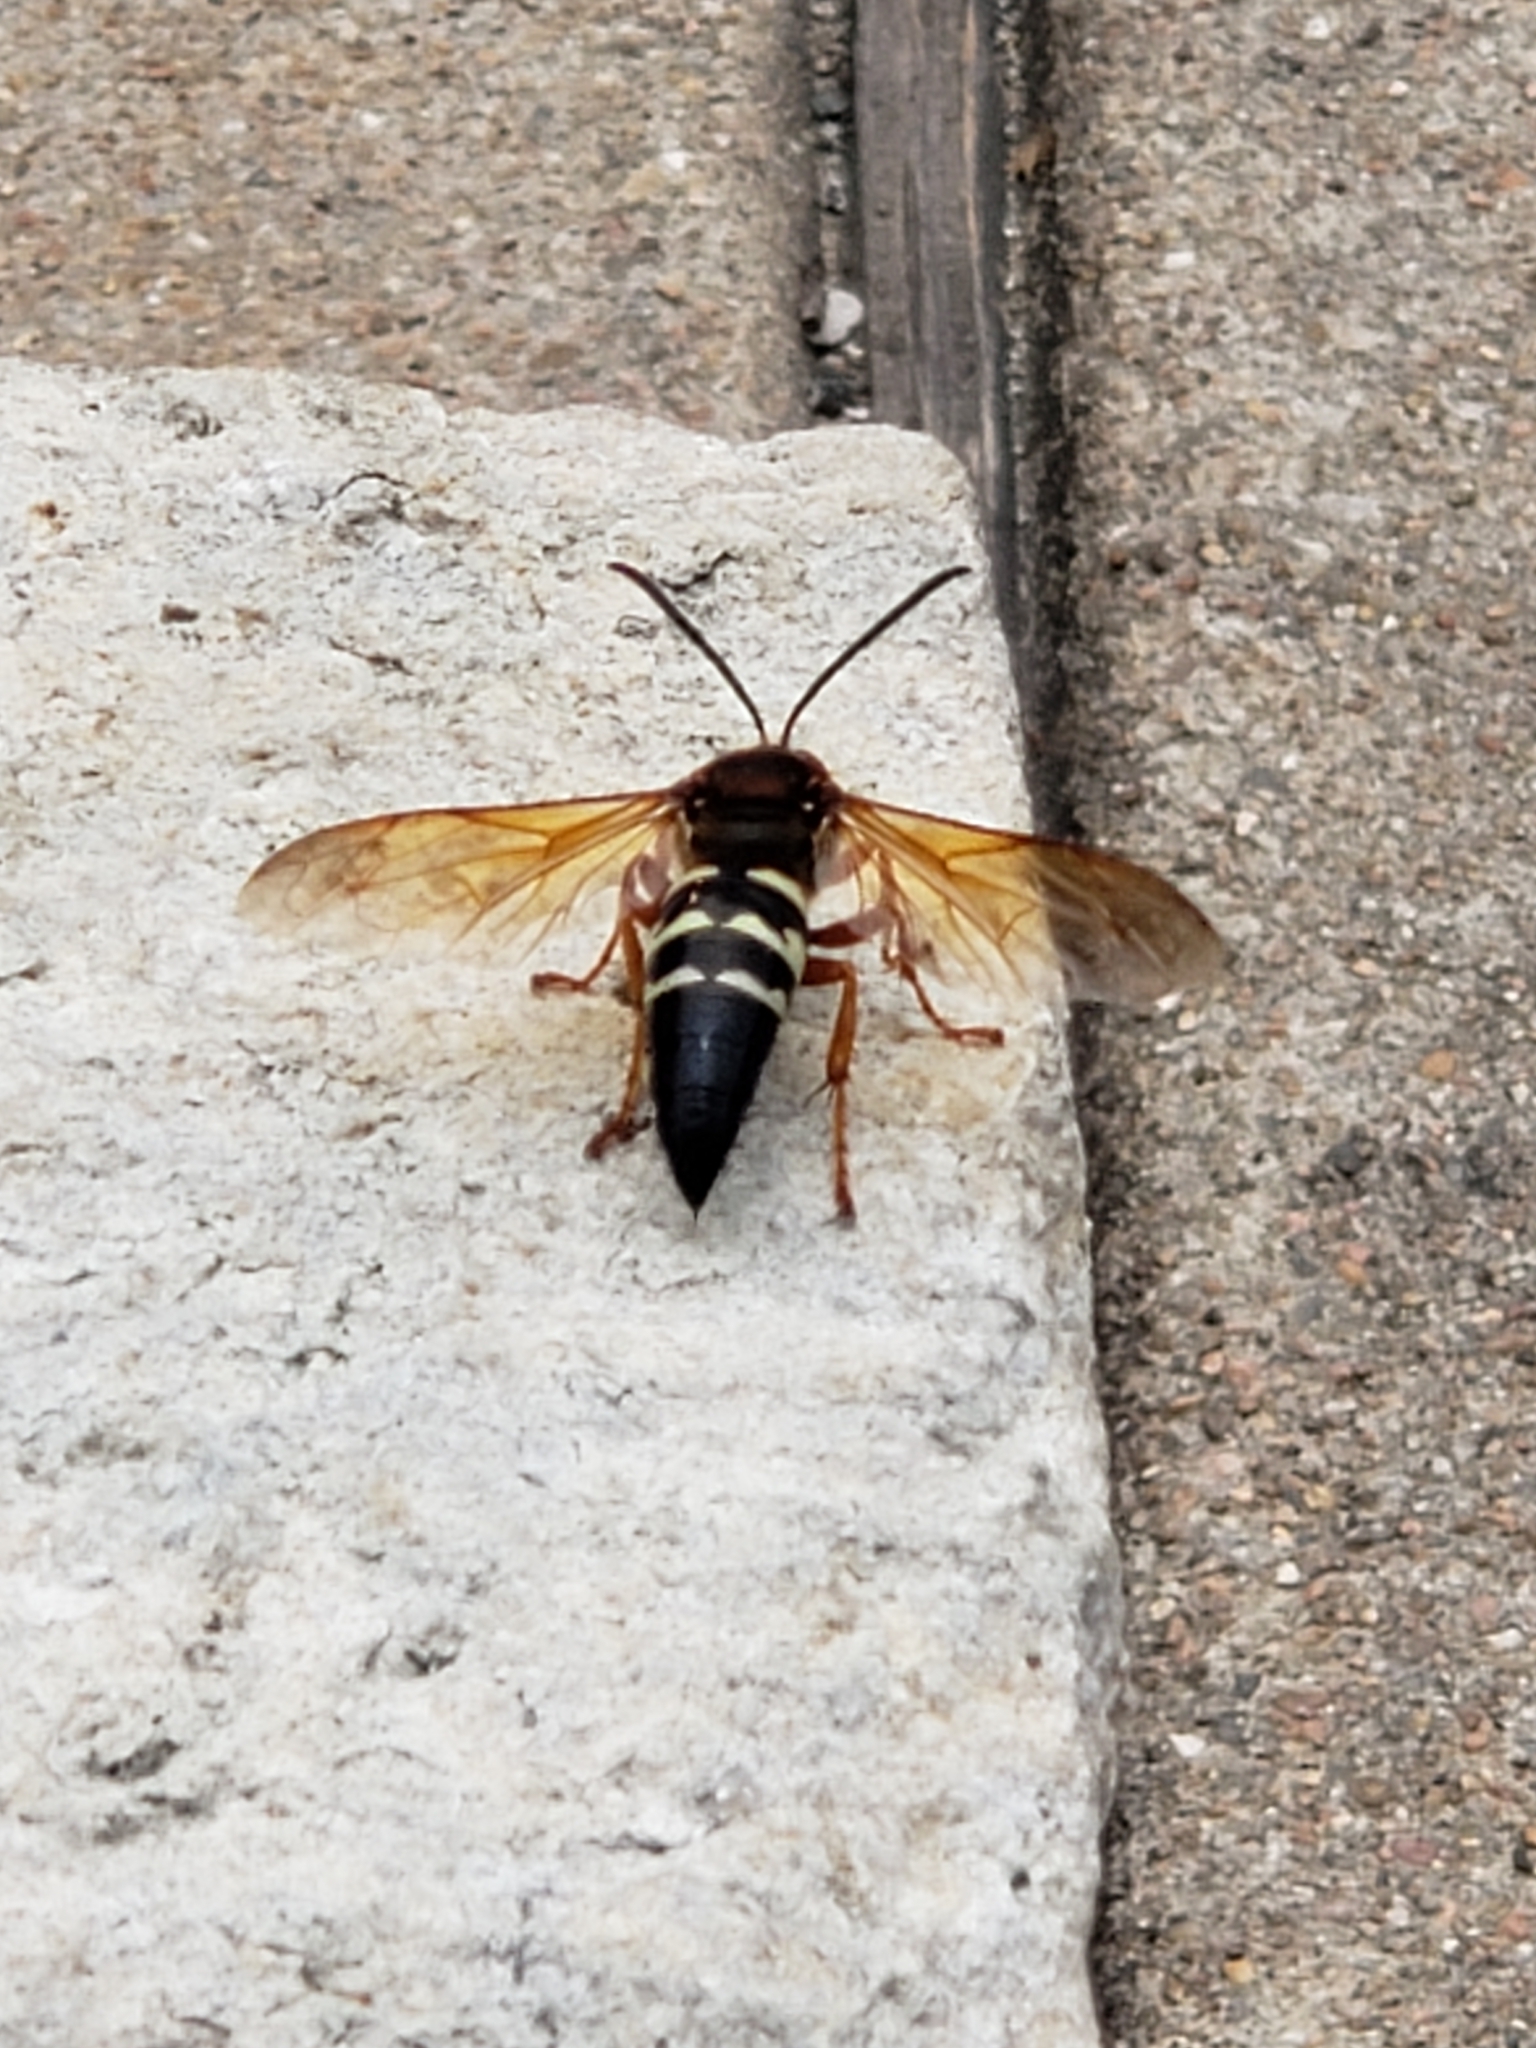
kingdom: Animalia
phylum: Arthropoda
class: Insecta
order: Hymenoptera
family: Crabronidae
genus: Sphecius
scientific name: Sphecius speciosus
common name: Cicada killer
